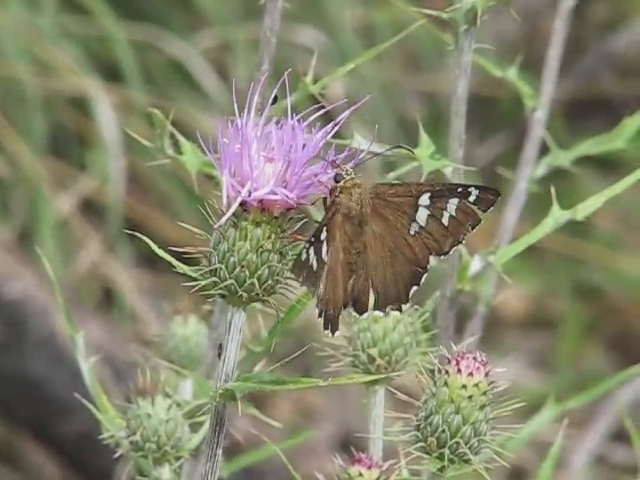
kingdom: Animalia
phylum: Arthropoda
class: Insecta
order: Lepidoptera
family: Hesperiidae
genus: Pyrrhopyge
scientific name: Pyrrhopyge araxes
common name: Dull firetip
